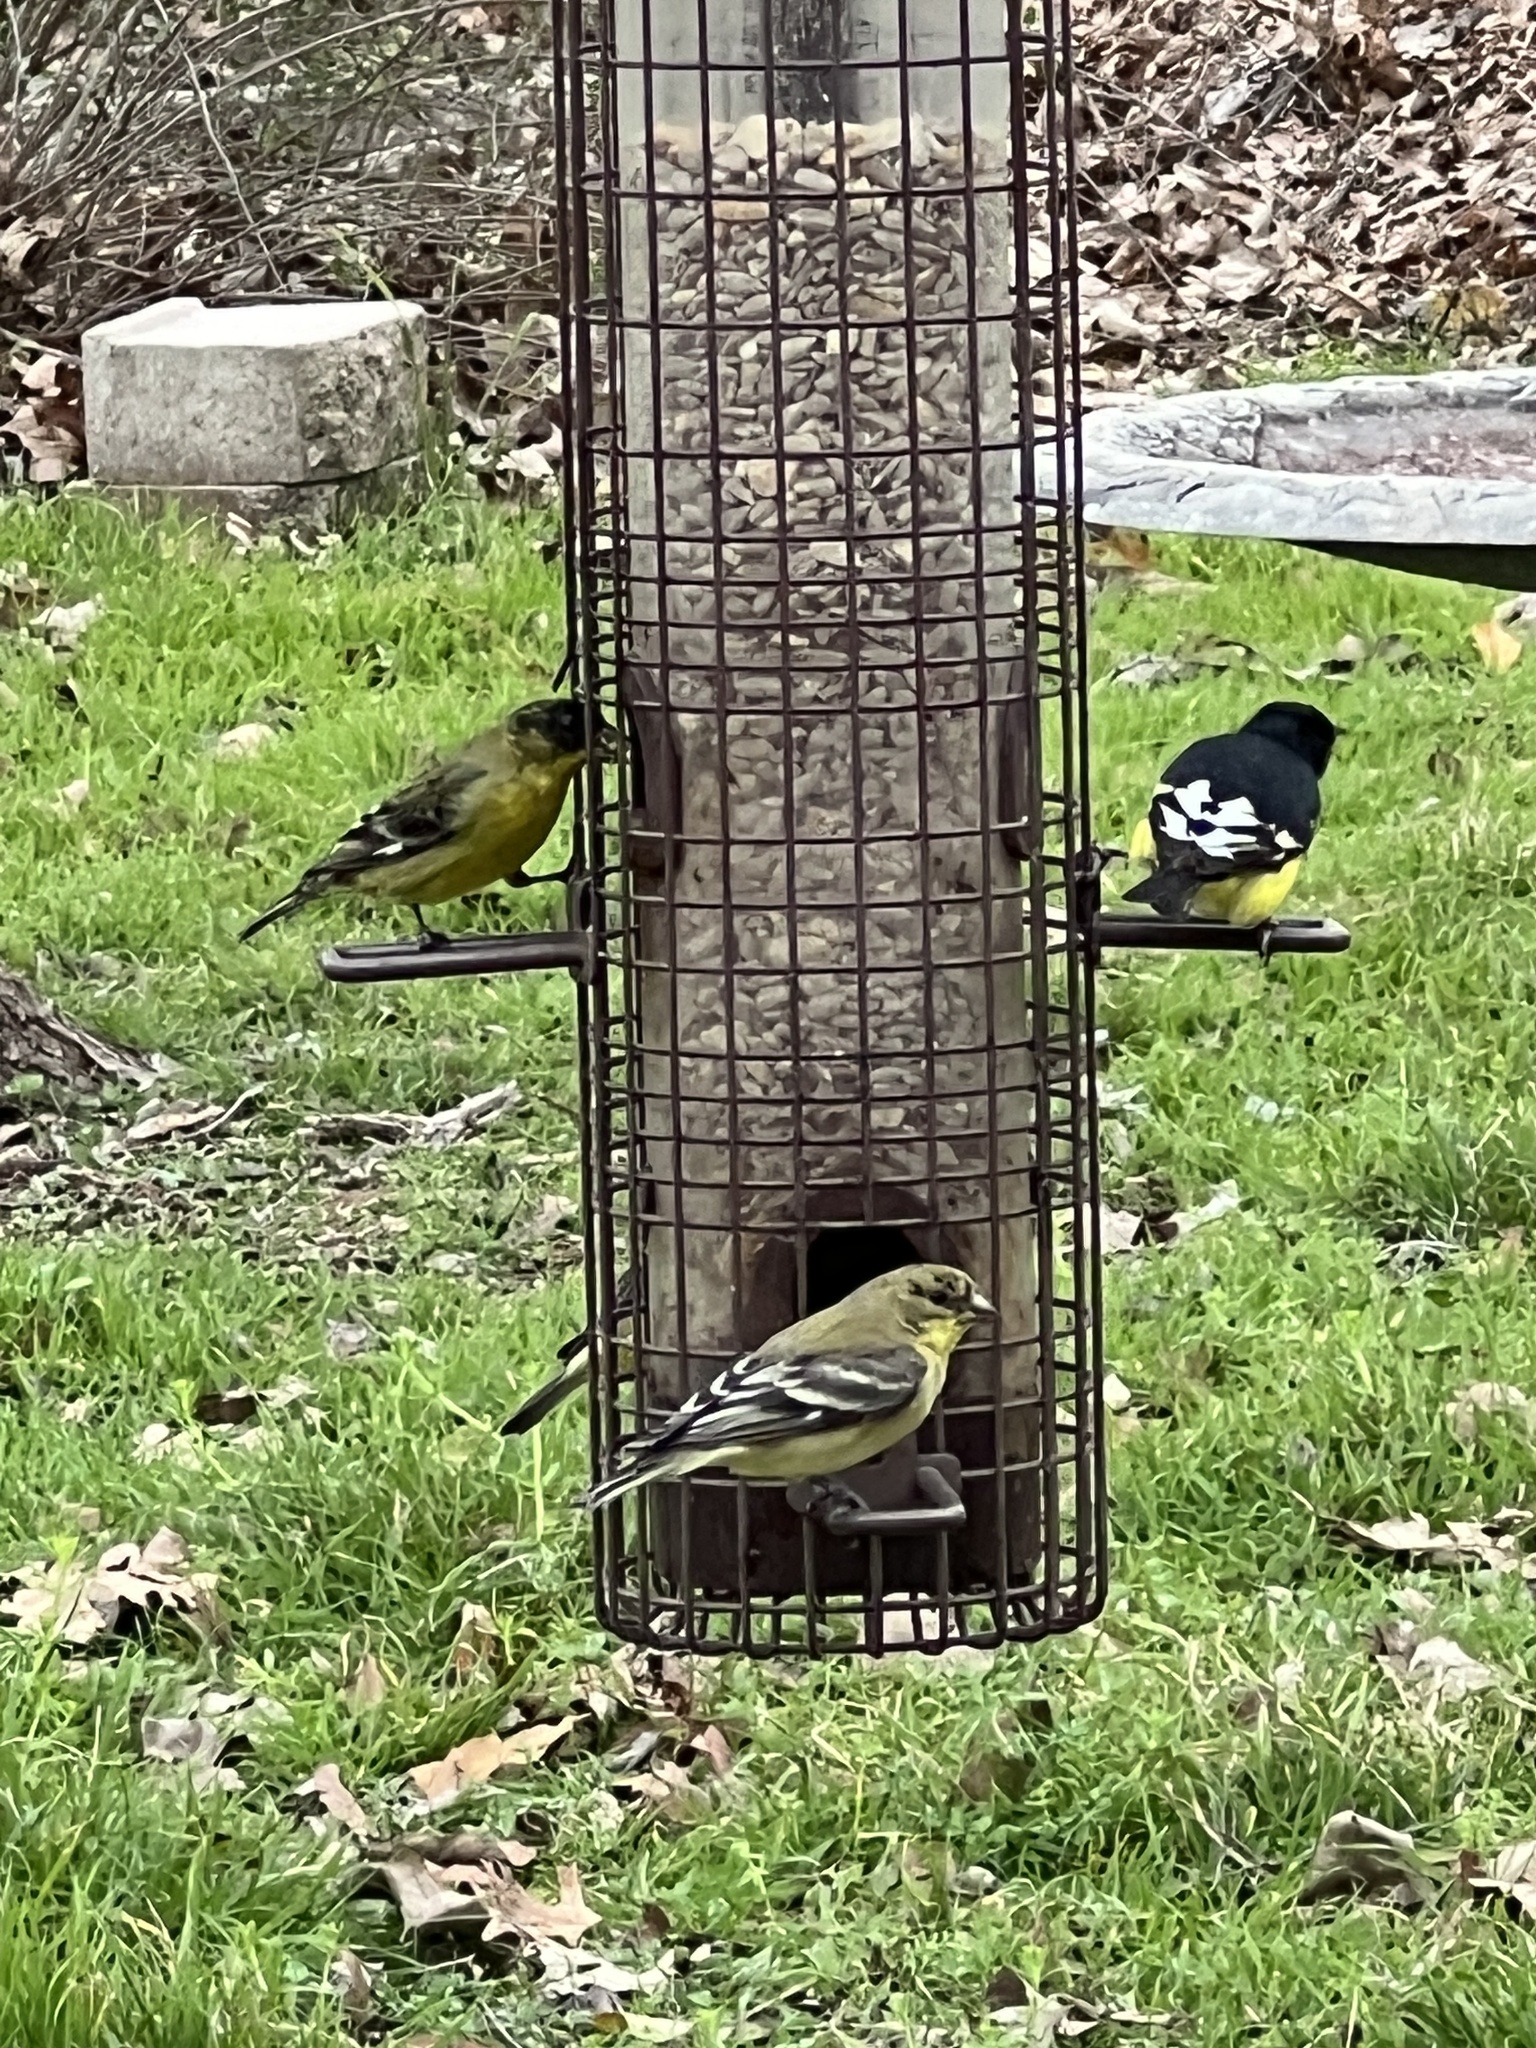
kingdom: Animalia
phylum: Chordata
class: Aves
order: Passeriformes
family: Fringillidae
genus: Spinus
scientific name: Spinus psaltria
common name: Lesser goldfinch
